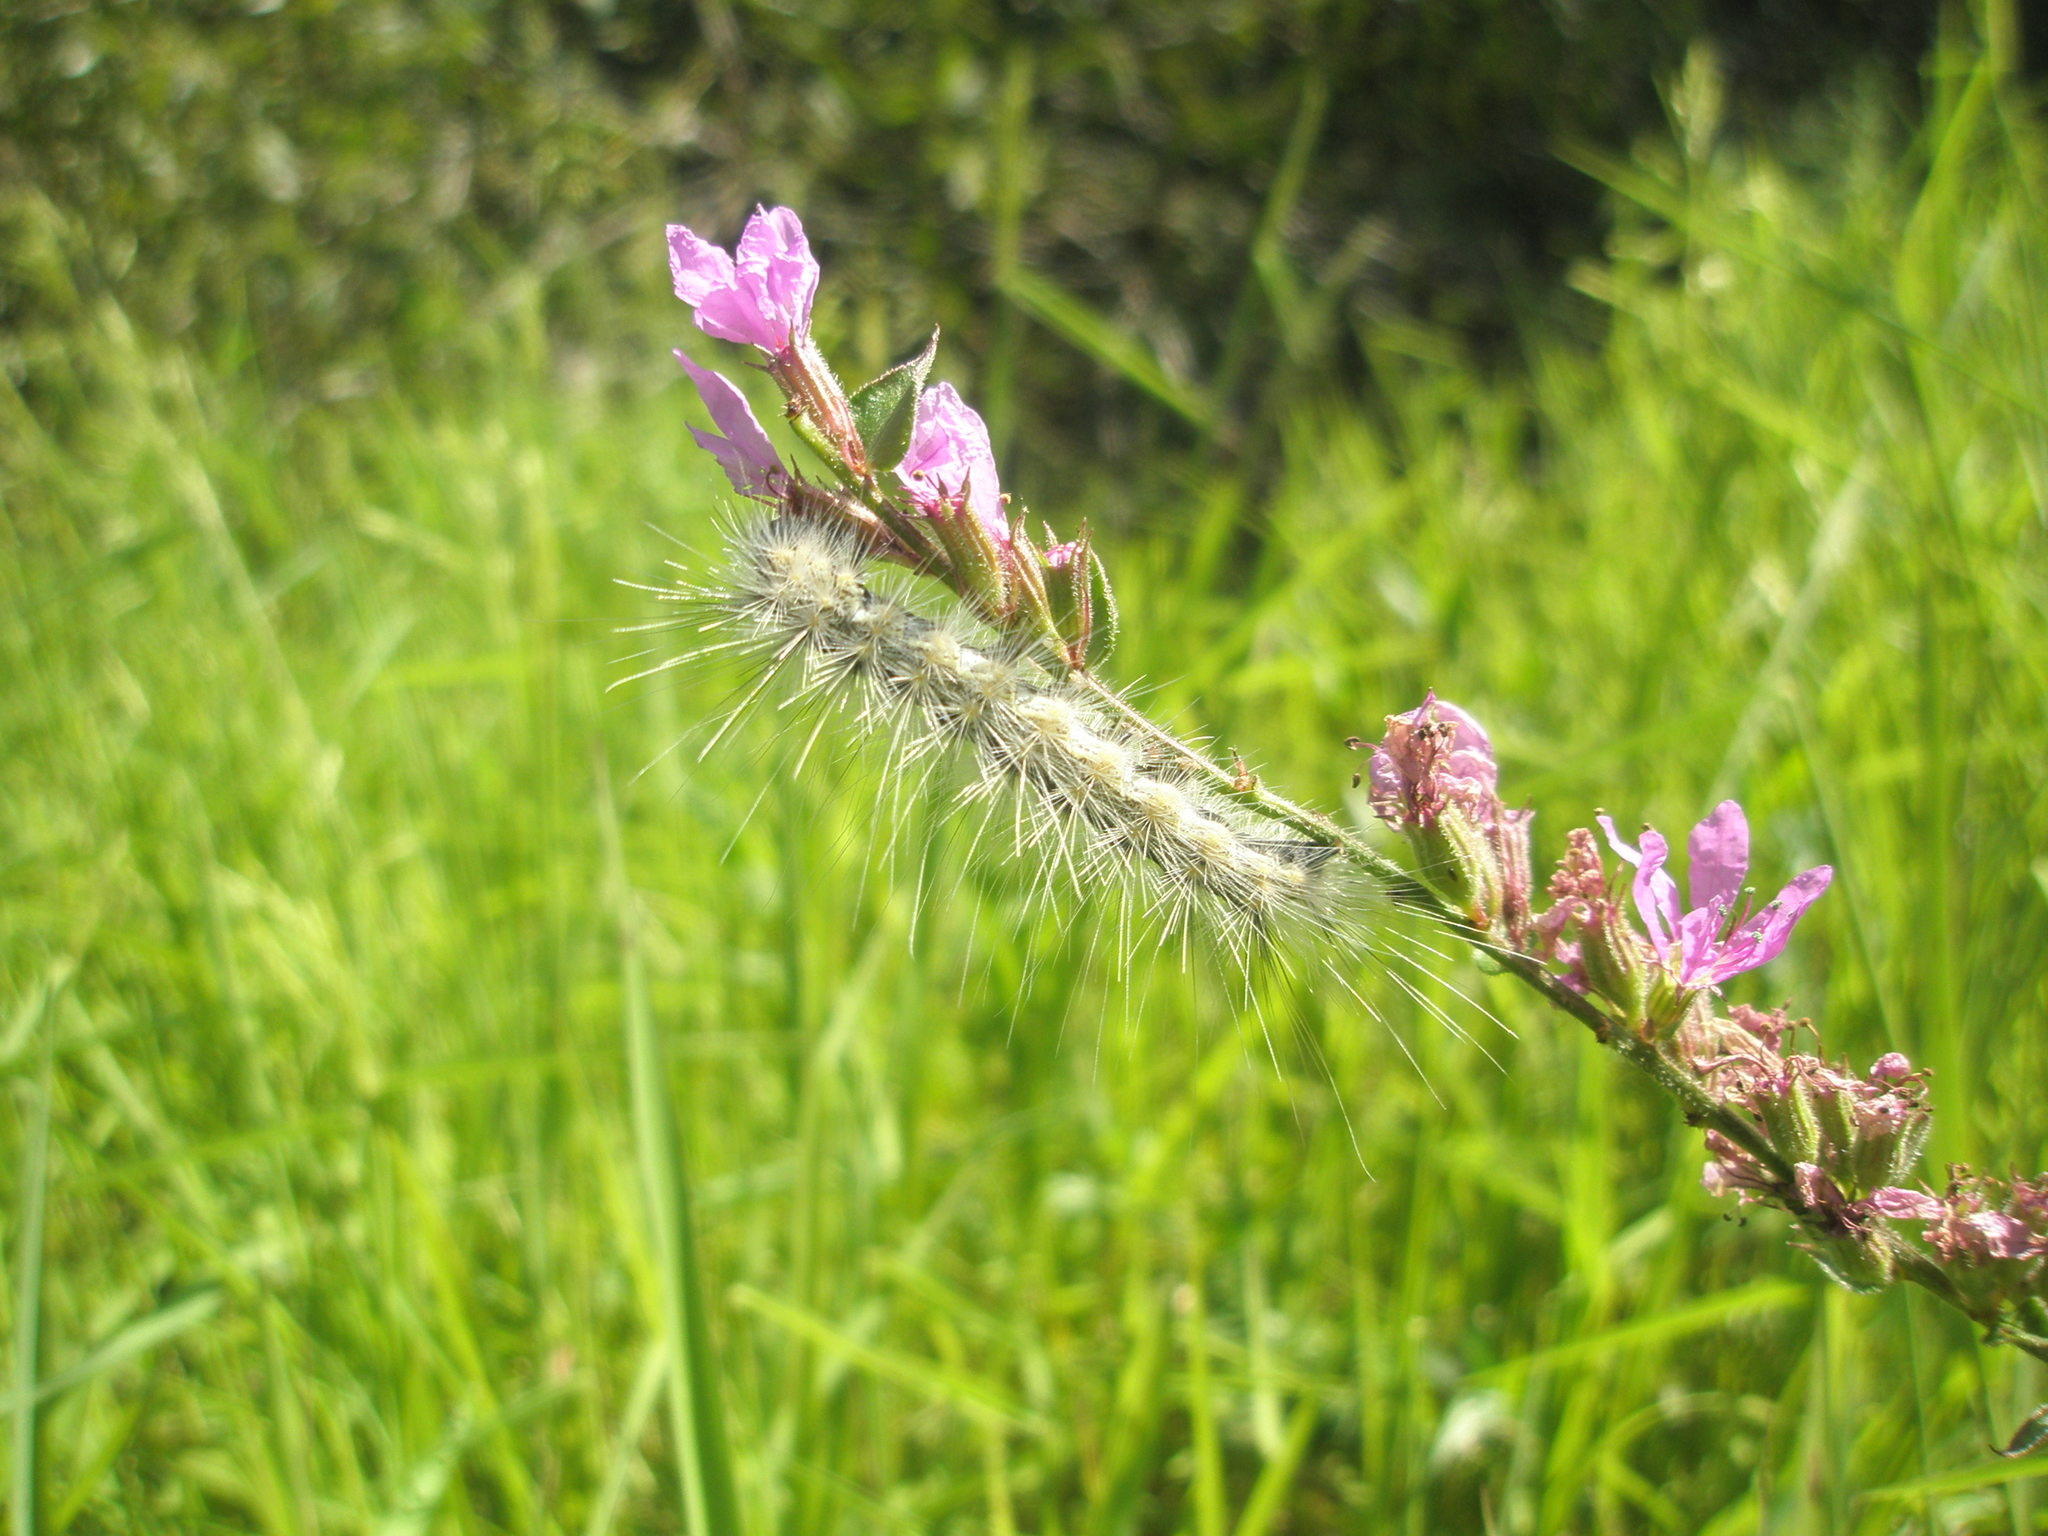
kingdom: Animalia
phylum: Arthropoda
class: Insecta
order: Lepidoptera
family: Erebidae
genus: Hyphantria
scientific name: Hyphantria cunea
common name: American white moth
